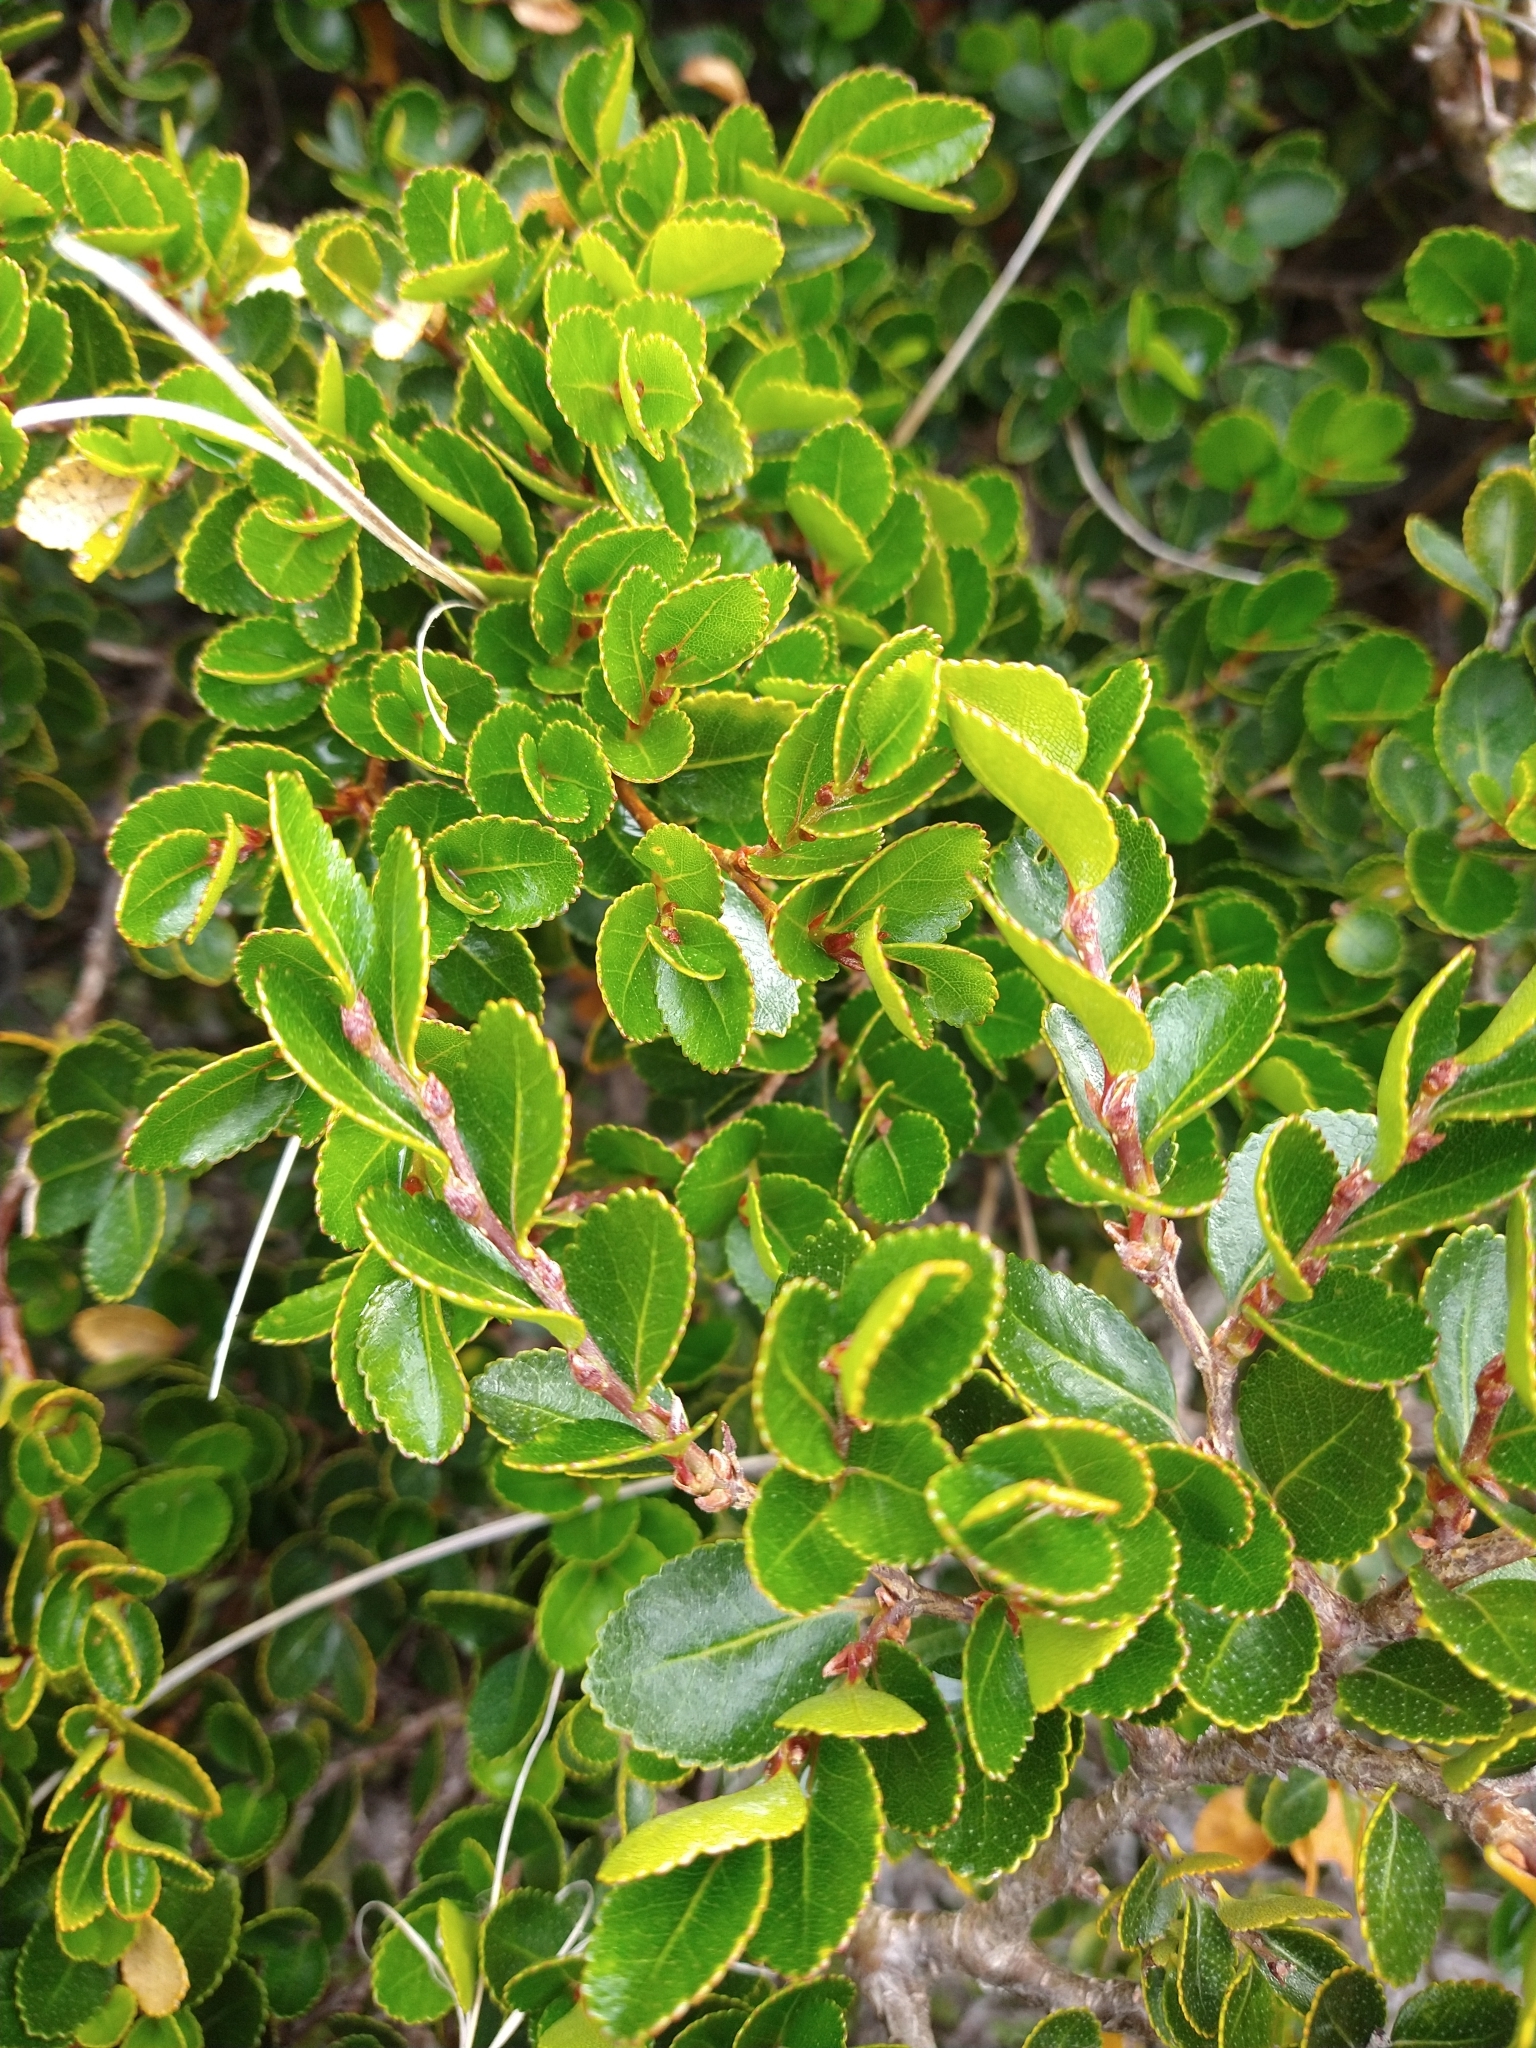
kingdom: Plantae
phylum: Tracheophyta
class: Magnoliopsida
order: Fagales
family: Nothofagaceae
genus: Nothofagus
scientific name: Nothofagus betuloides
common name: Magellan's beech
